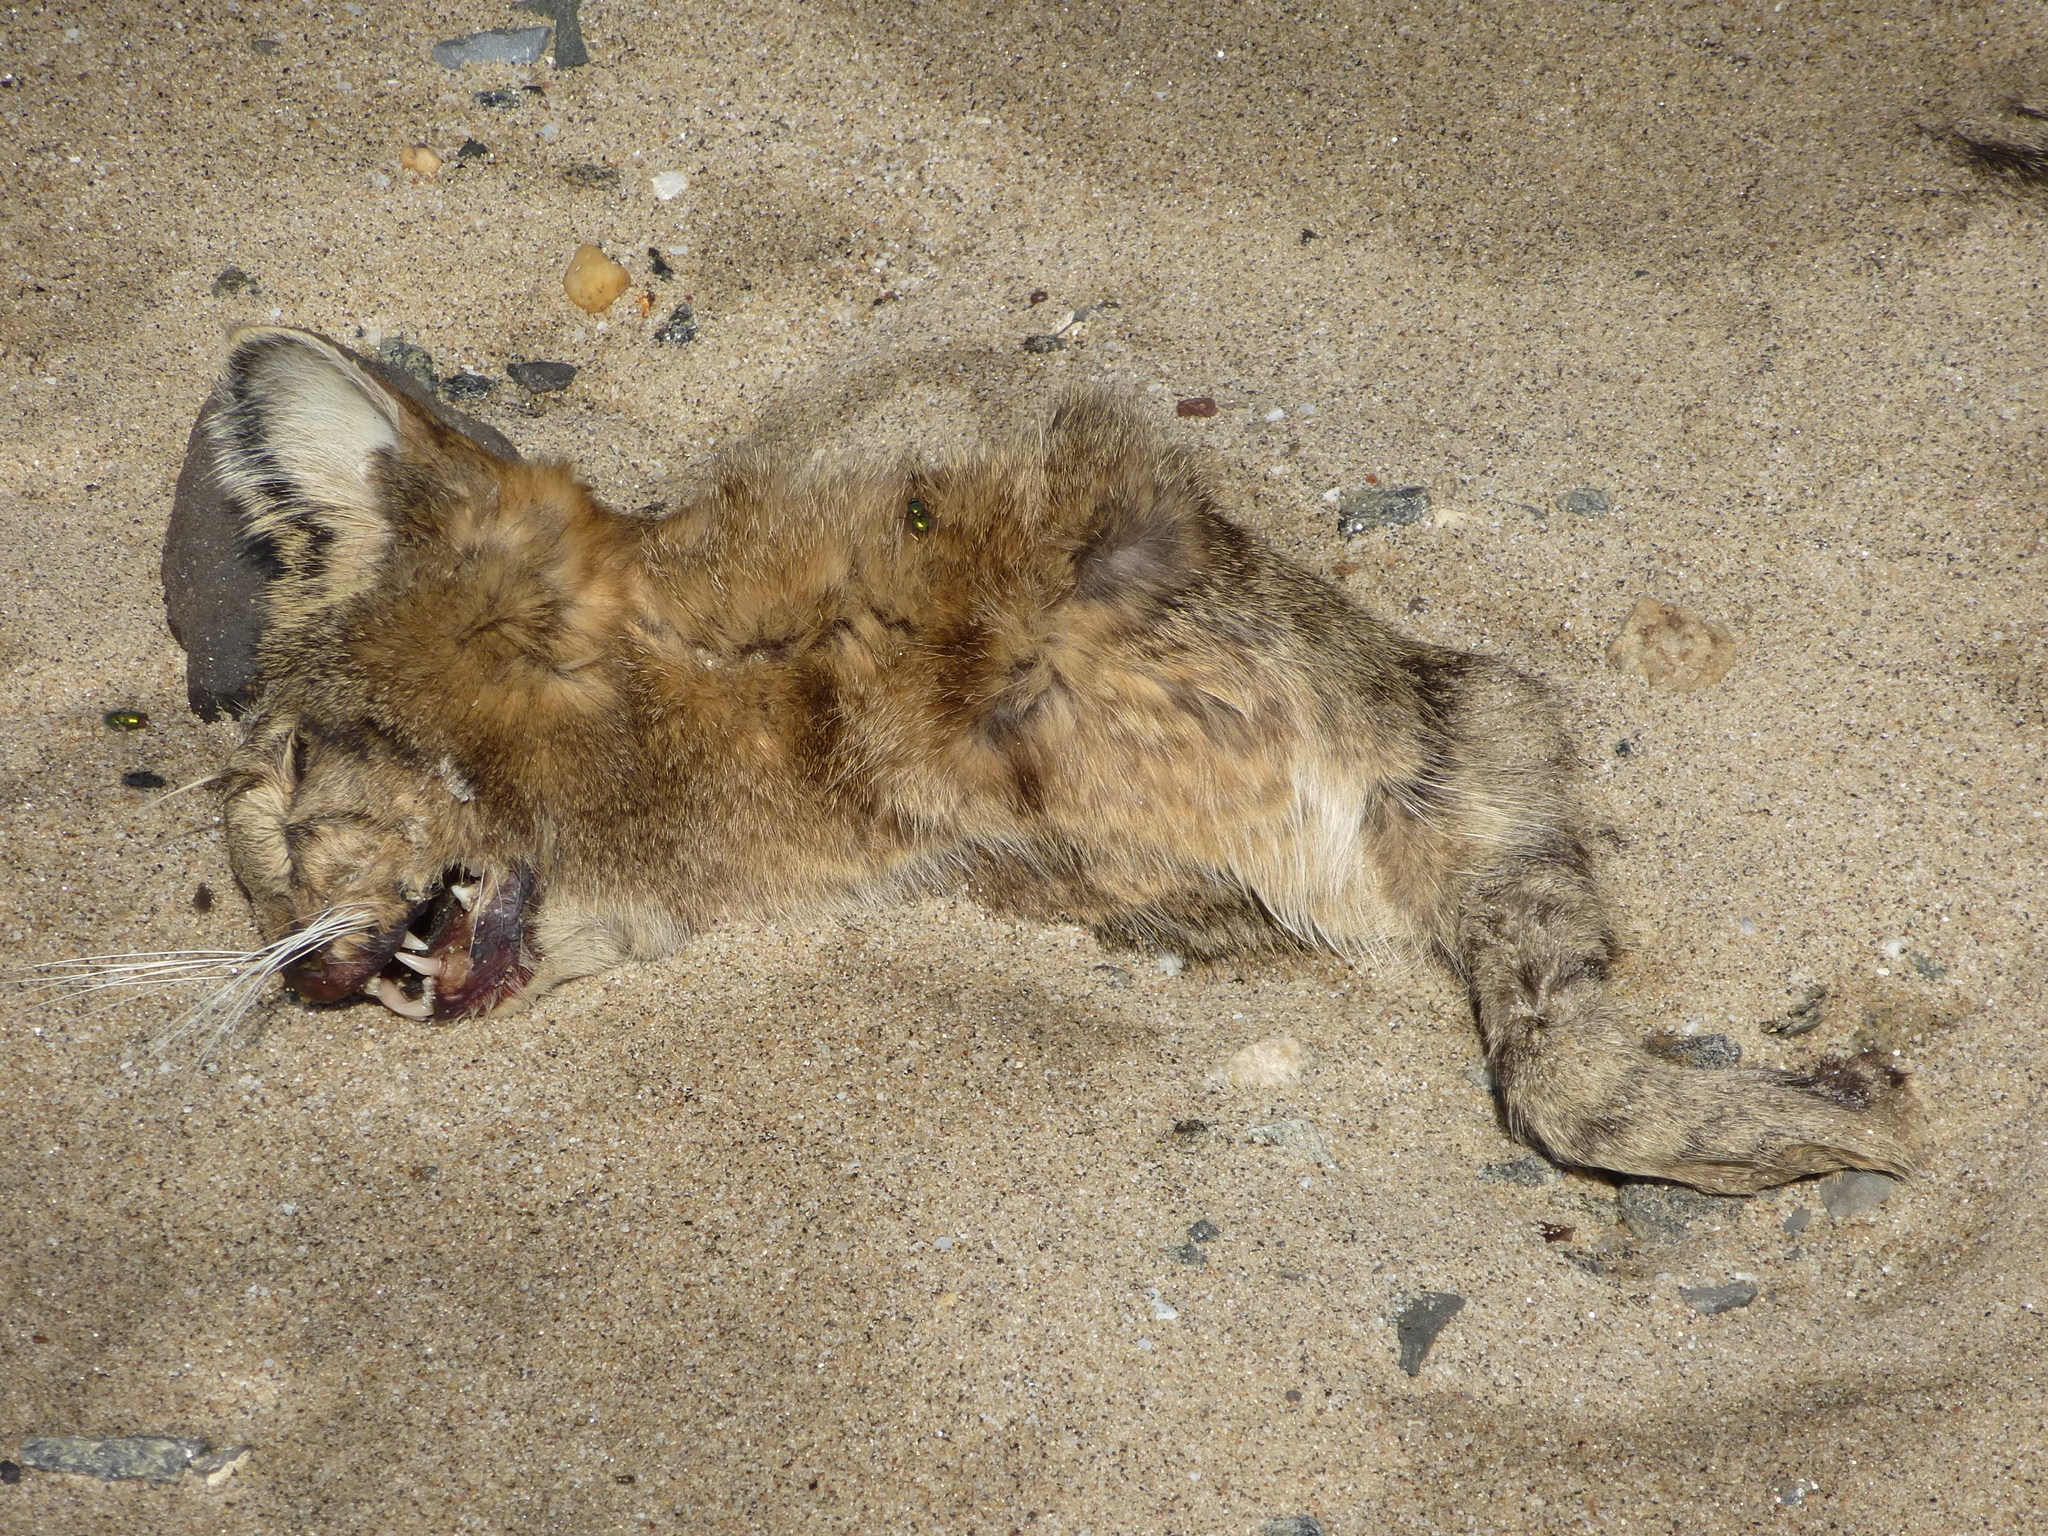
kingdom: Animalia
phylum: Chordata
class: Mammalia
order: Carnivora
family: Felidae
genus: Felis
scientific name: Felis catus
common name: Domestic cat
